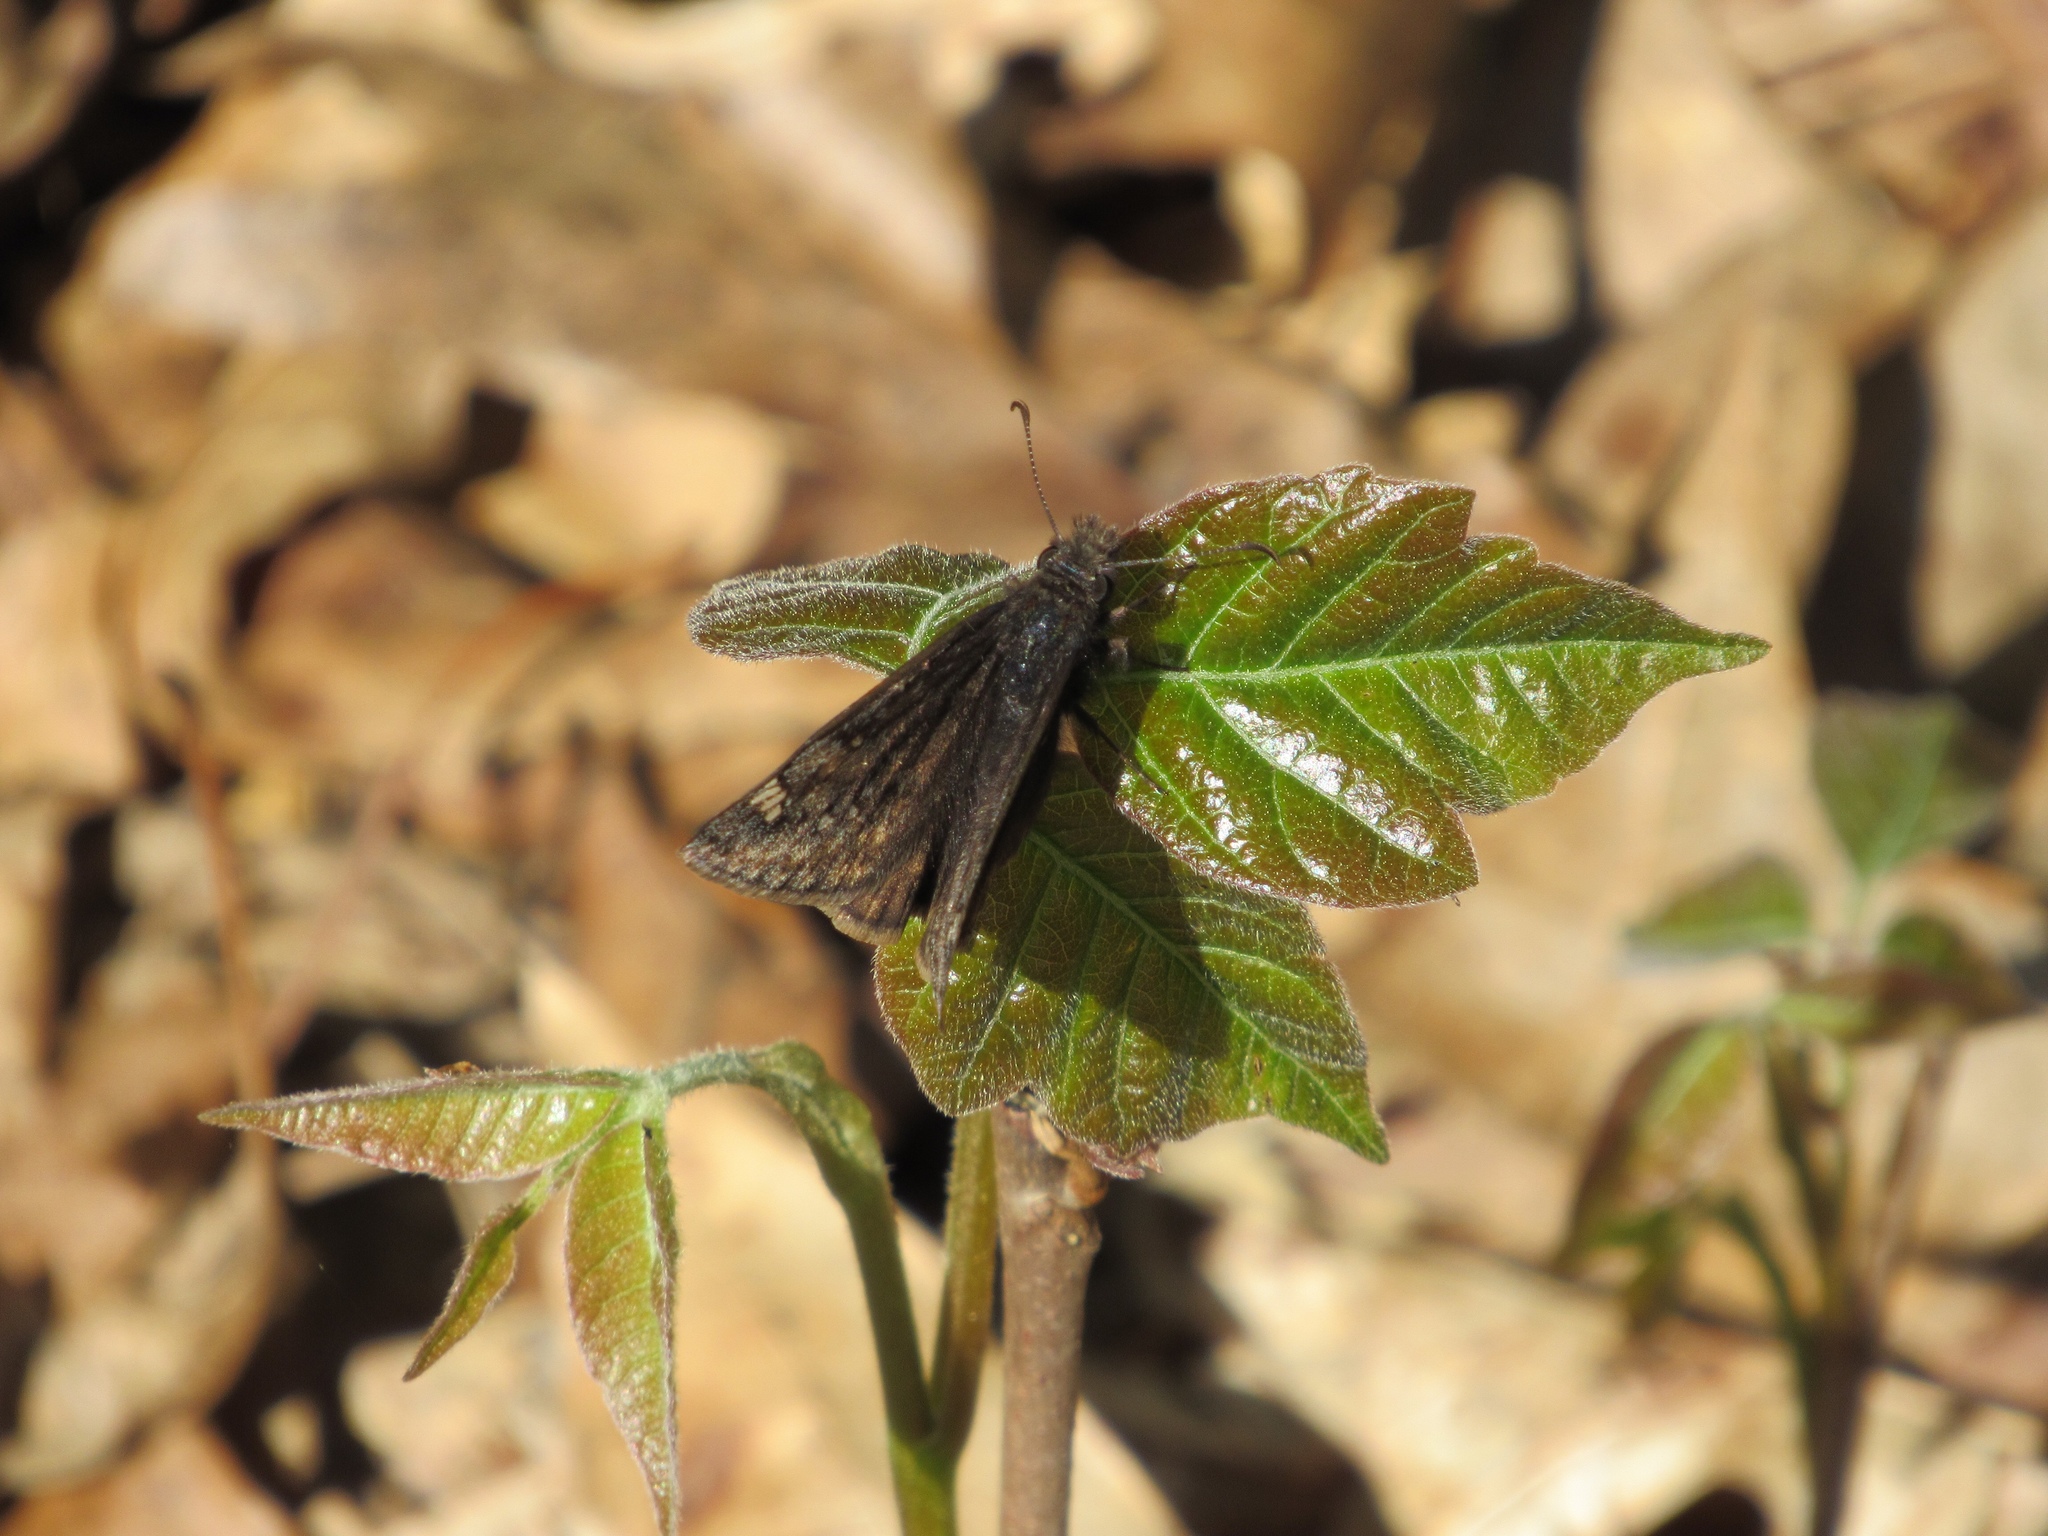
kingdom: Animalia
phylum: Arthropoda
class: Insecta
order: Lepidoptera
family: Hesperiidae
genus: Erynnis
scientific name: Erynnis juvenalis
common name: Juvenal's duskywing
